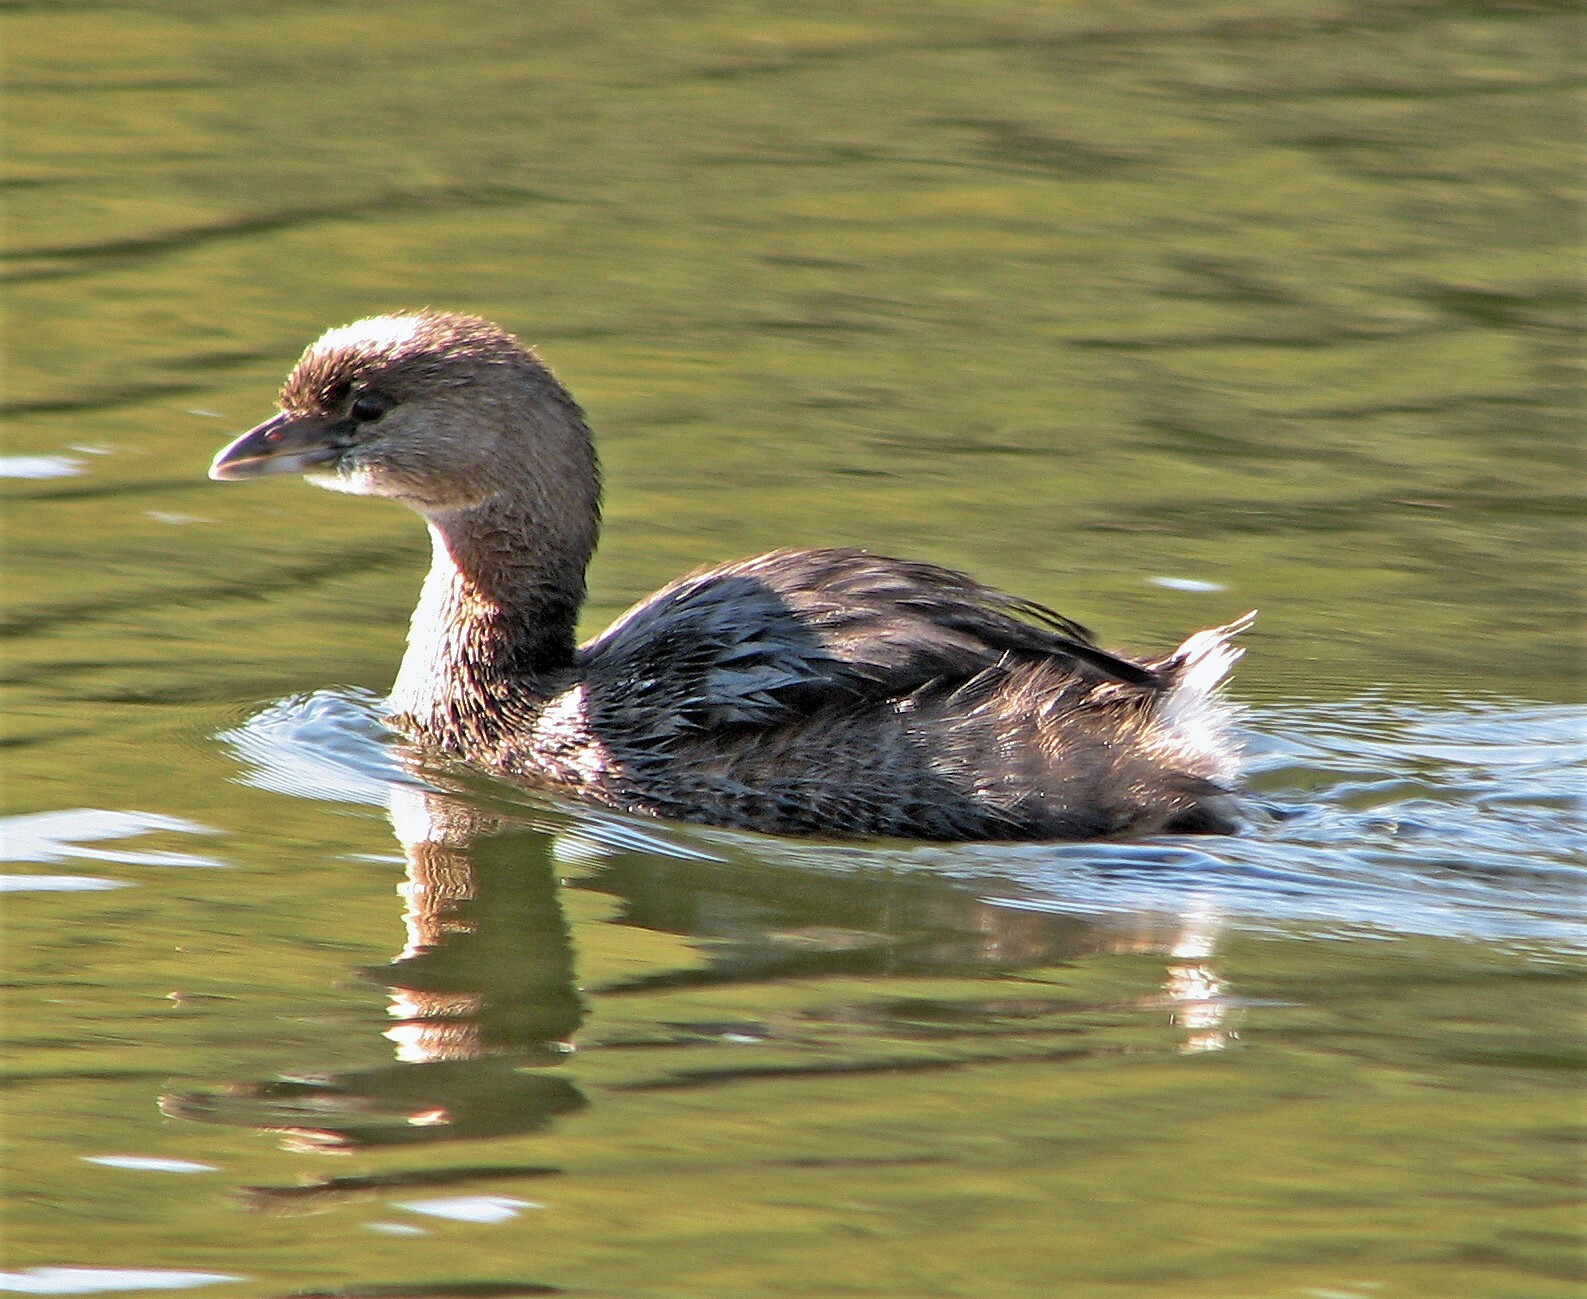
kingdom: Animalia
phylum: Chordata
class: Aves
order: Podicipediformes
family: Podicipedidae
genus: Podilymbus
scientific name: Podilymbus podiceps
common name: Pied-billed grebe
